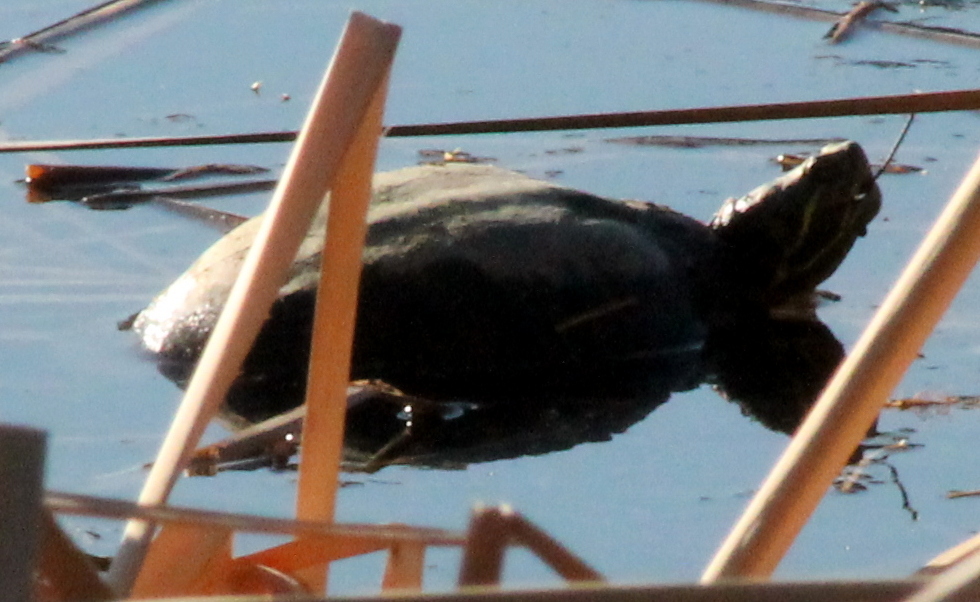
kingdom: Animalia
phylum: Chordata
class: Testudines
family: Emydidae
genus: Trachemys
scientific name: Trachemys scripta
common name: Slider
